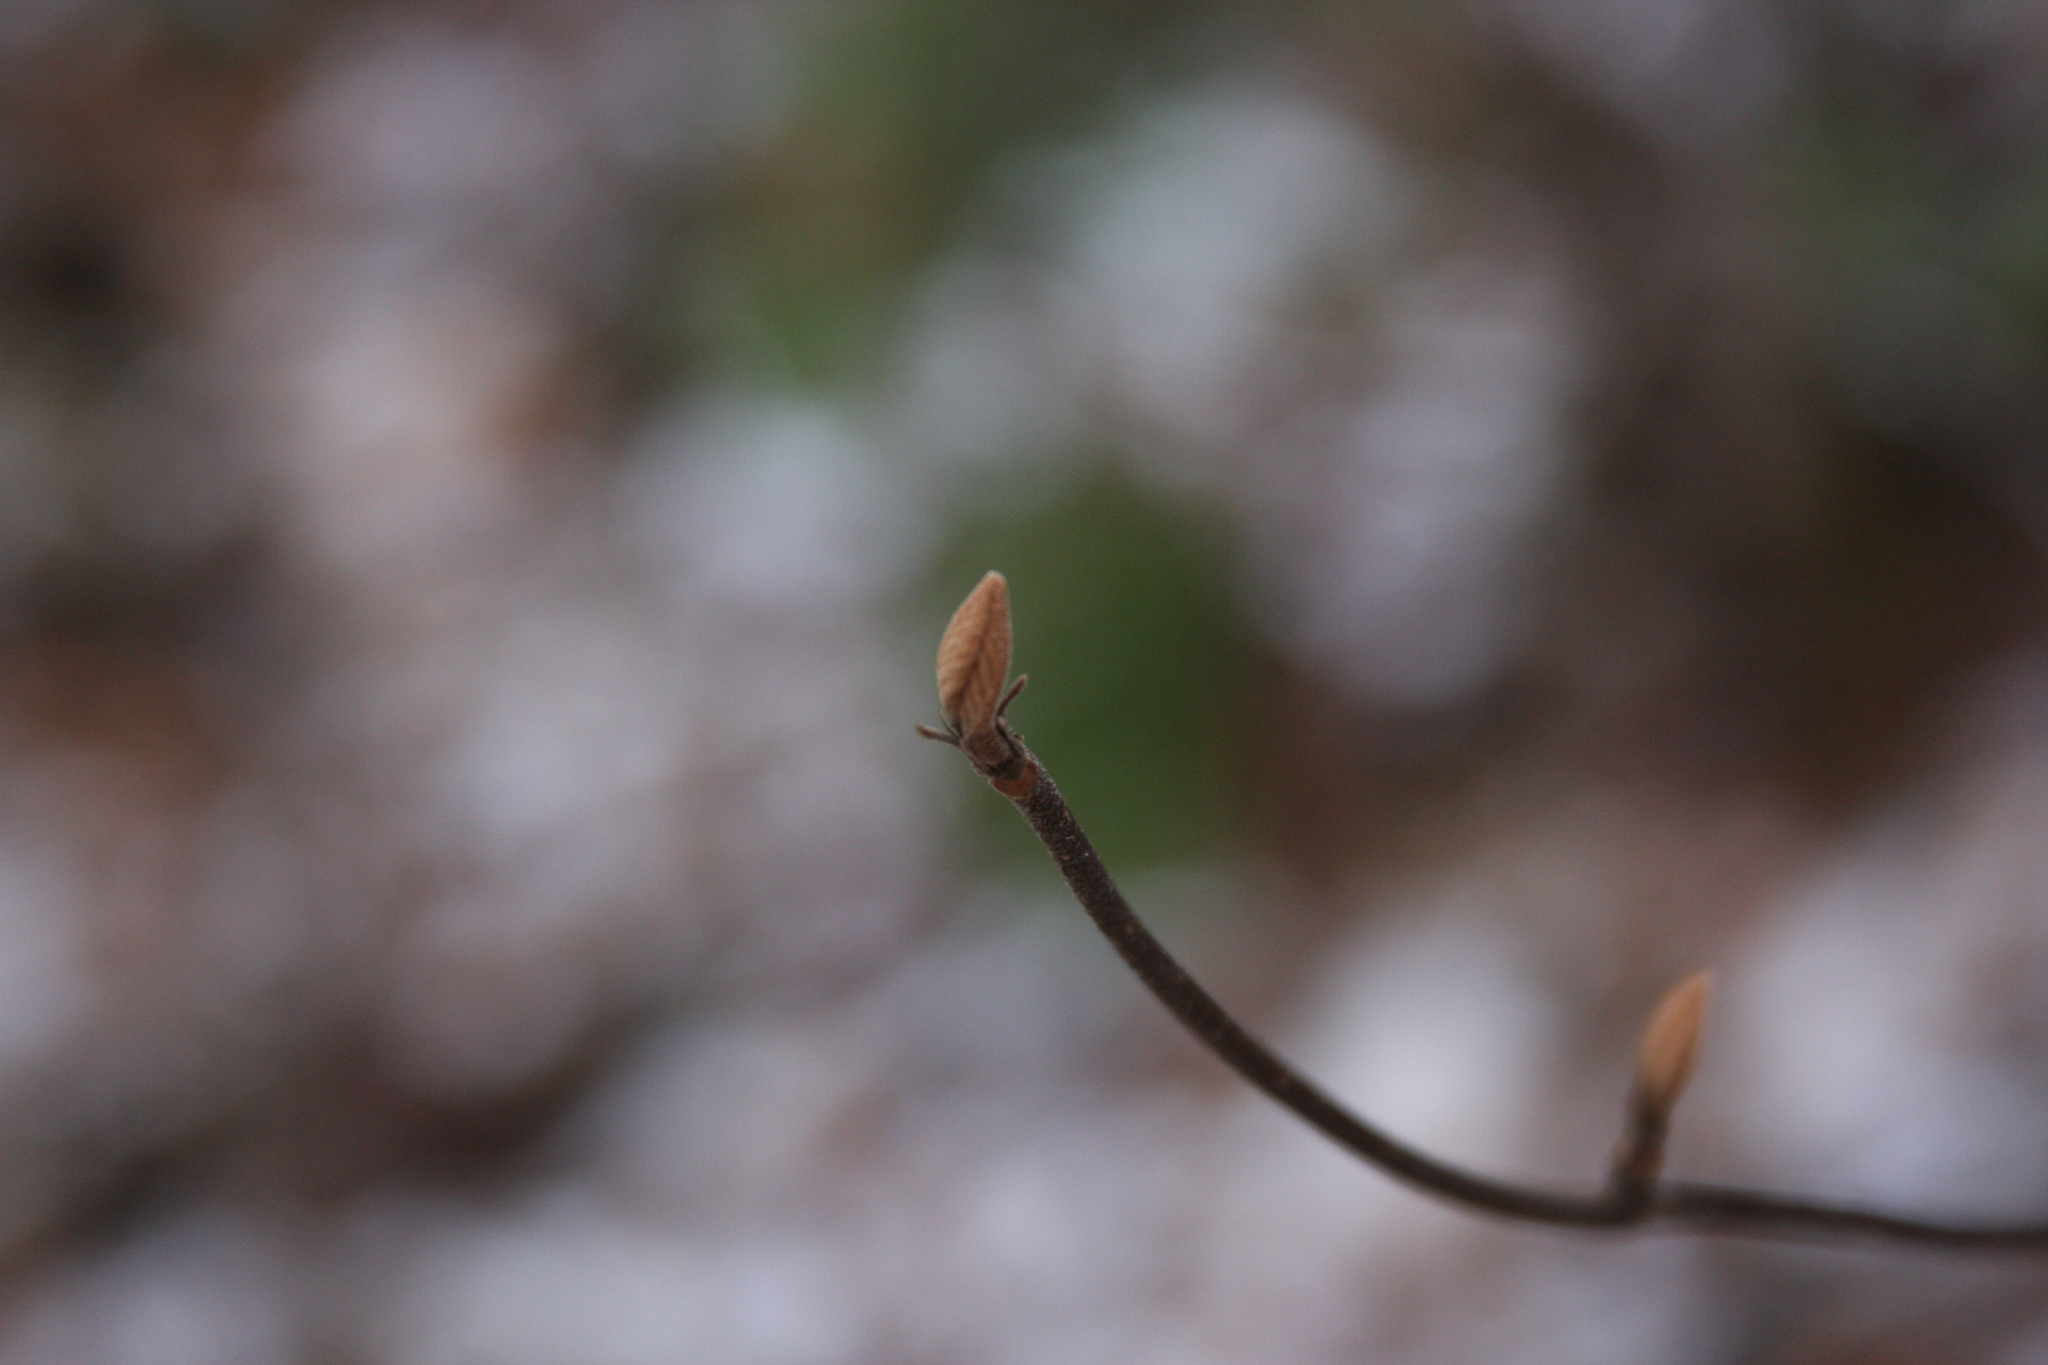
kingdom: Plantae
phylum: Tracheophyta
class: Magnoliopsida
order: Dipsacales
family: Viburnaceae
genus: Viburnum
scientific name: Viburnum lantanoides
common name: Hobblebush
